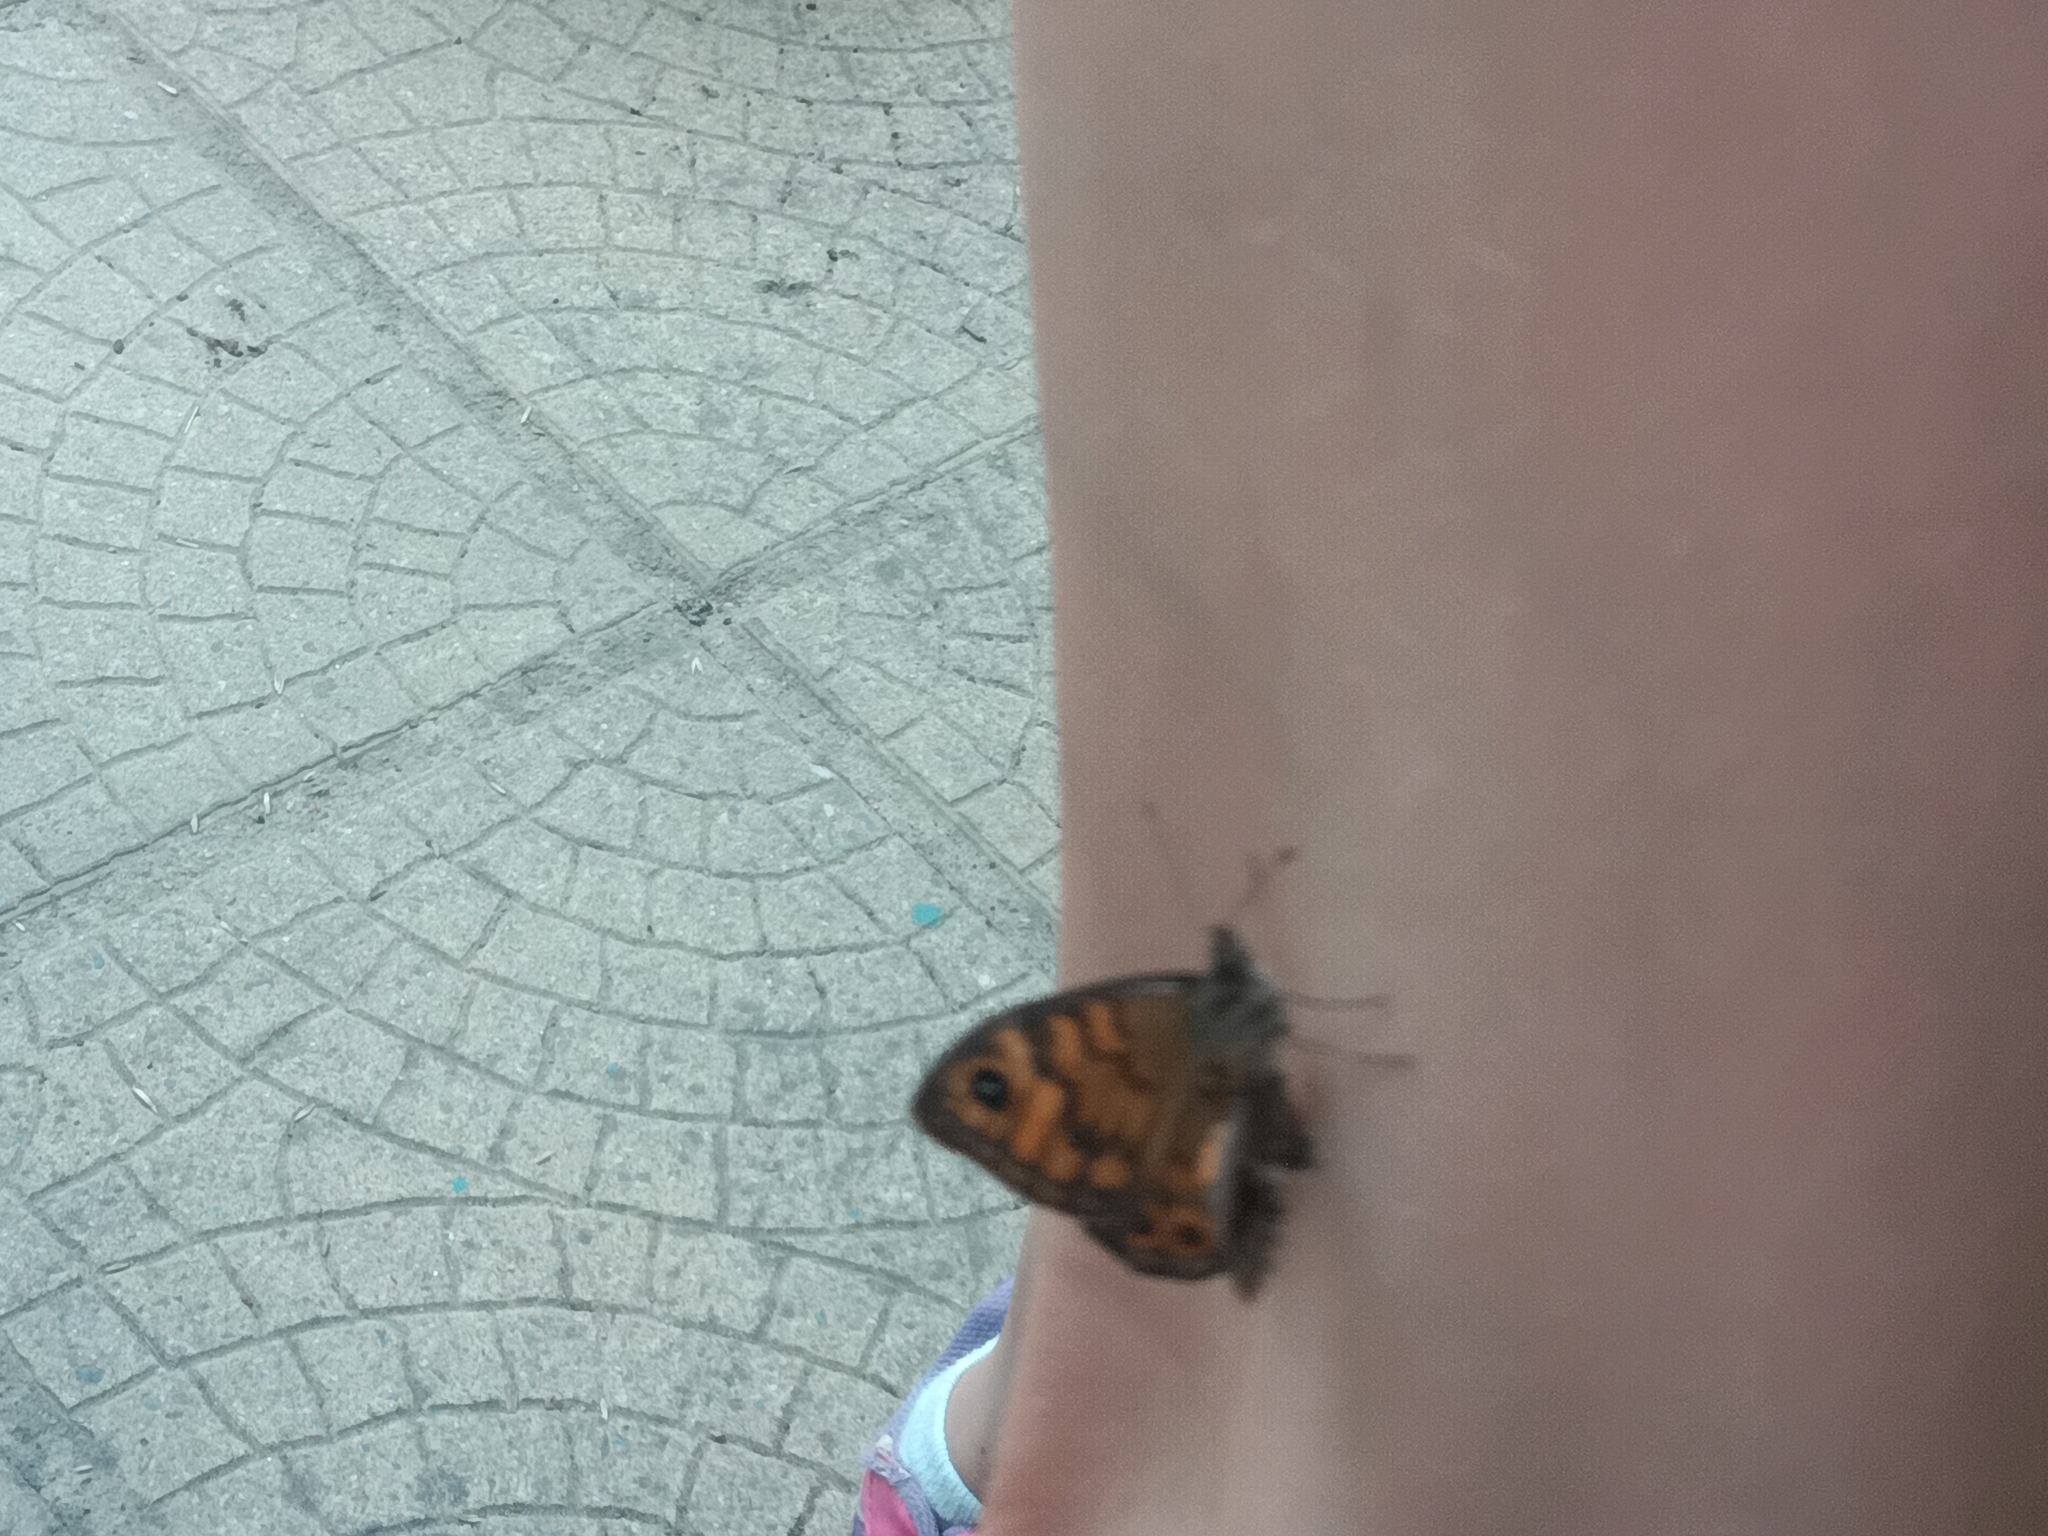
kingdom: Animalia
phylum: Arthropoda
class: Insecta
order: Lepidoptera
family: Nymphalidae
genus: Pararge
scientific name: Pararge Lasiommata megera
